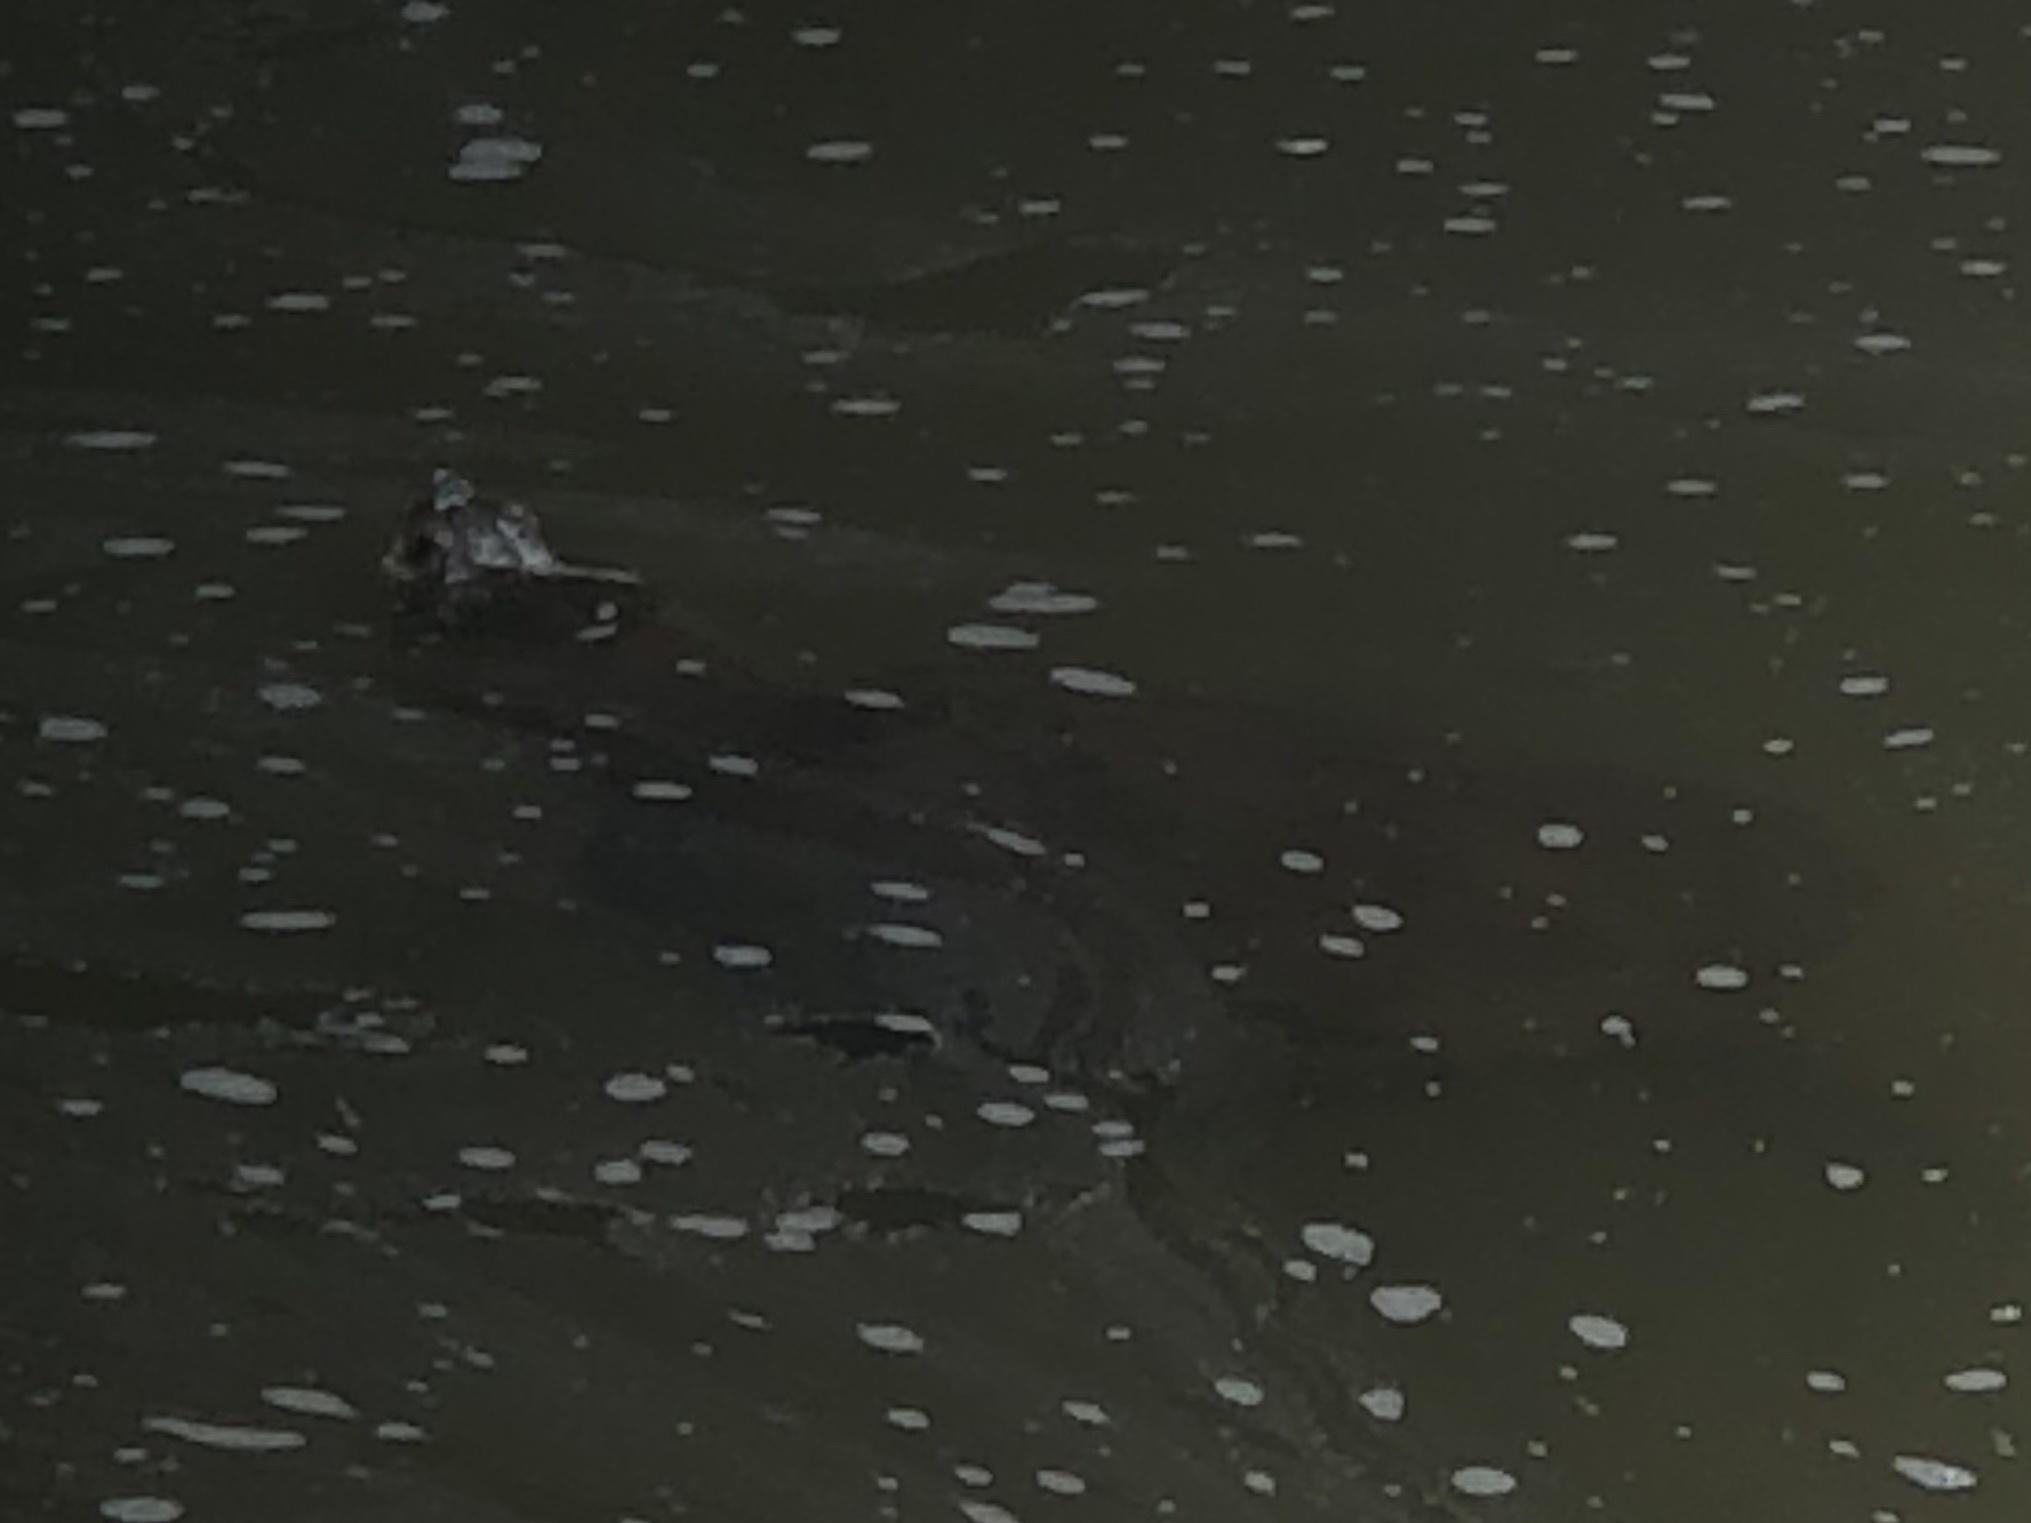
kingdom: Animalia
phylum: Chordata
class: Testudines
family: Chelydridae
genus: Chelydra
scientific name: Chelydra serpentina
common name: Common snapping turtle
